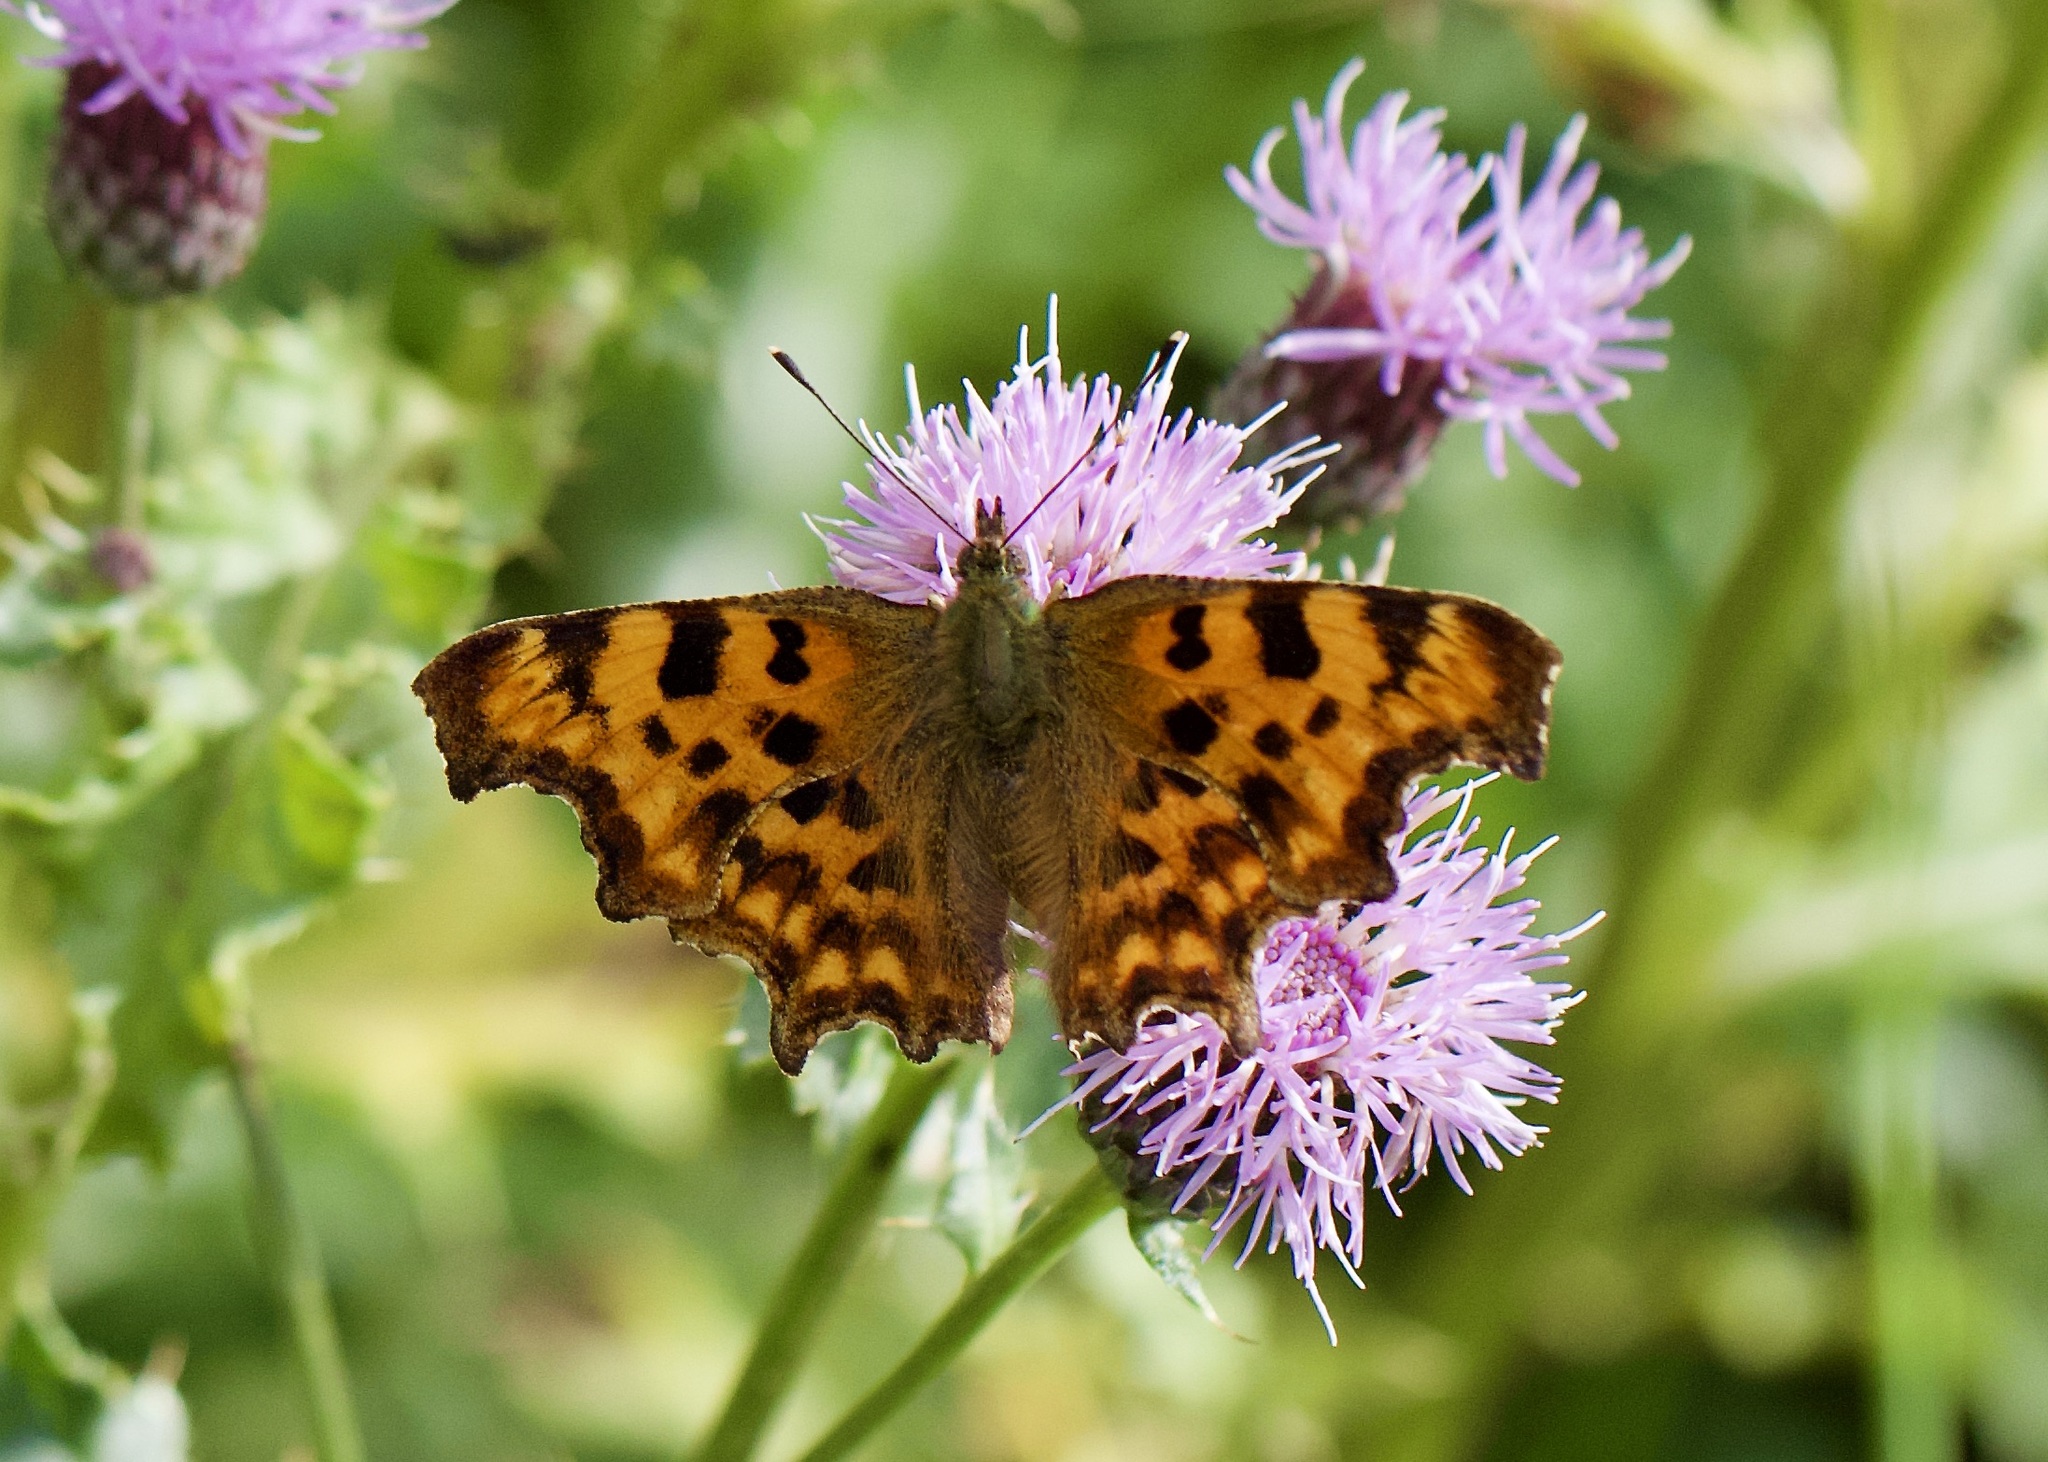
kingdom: Animalia
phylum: Arthropoda
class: Insecta
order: Lepidoptera
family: Nymphalidae
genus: Polygonia
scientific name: Polygonia c-album
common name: Comma
